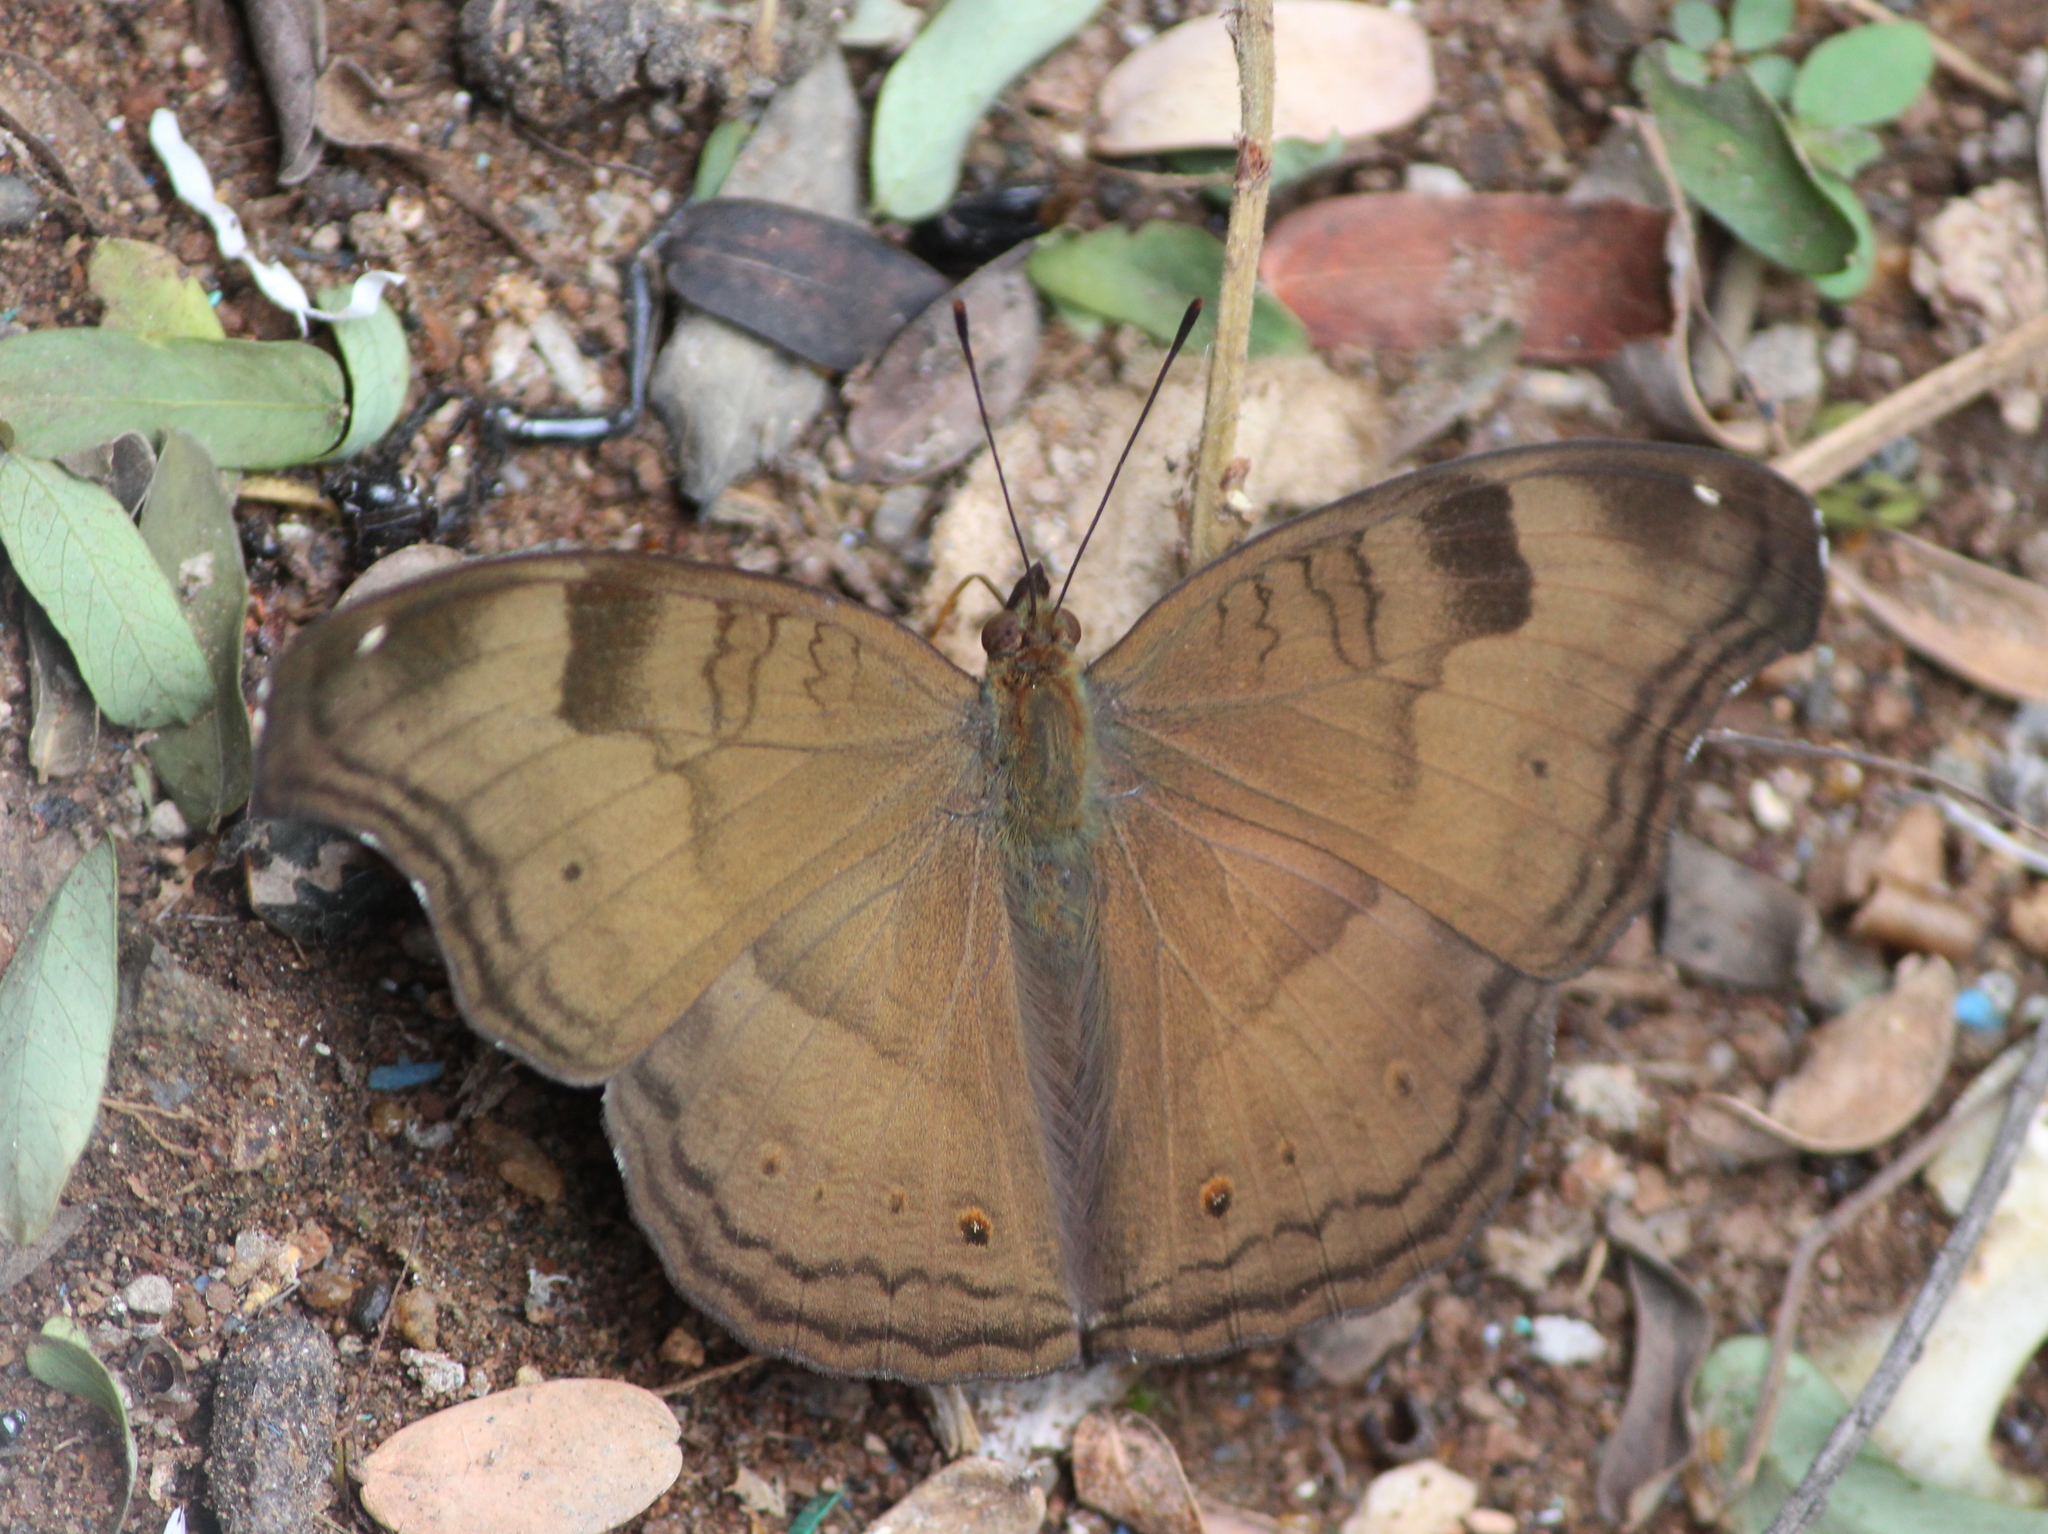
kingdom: Animalia
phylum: Arthropoda
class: Insecta
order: Lepidoptera
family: Nymphalidae
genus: Junonia
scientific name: Junonia iphita
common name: Chocolate pansy
